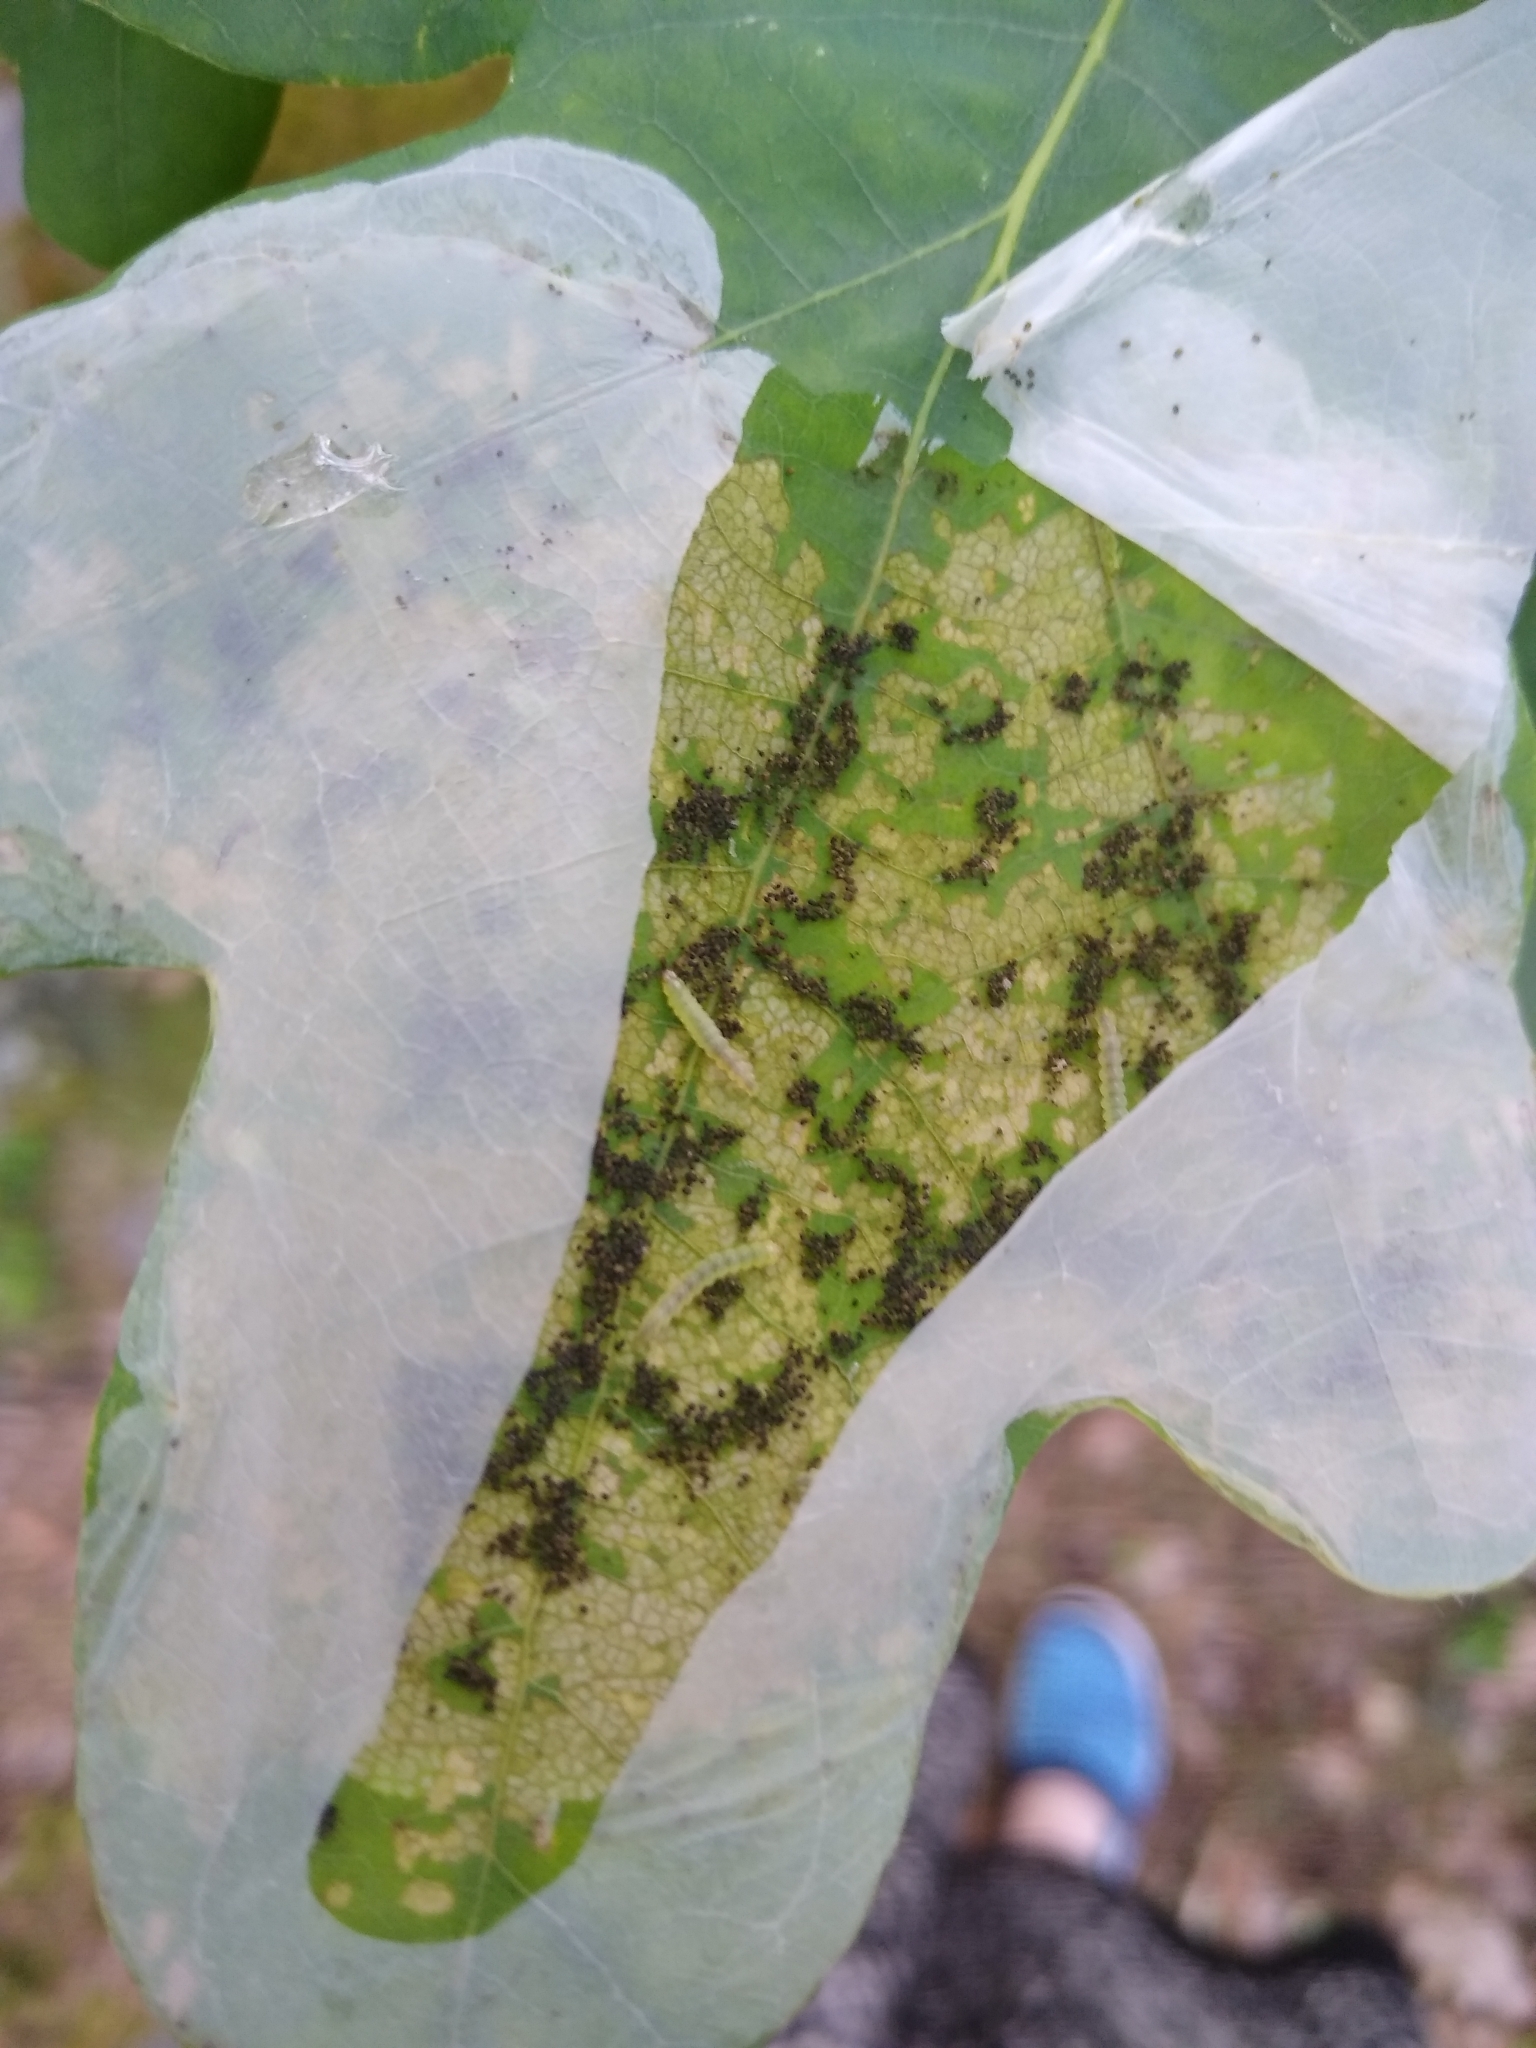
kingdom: Animalia
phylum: Arthropoda
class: Insecta
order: Lepidoptera
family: Gracillariidae
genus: Acrocercops
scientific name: Acrocercops brongniardella
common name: Brown oak slender
